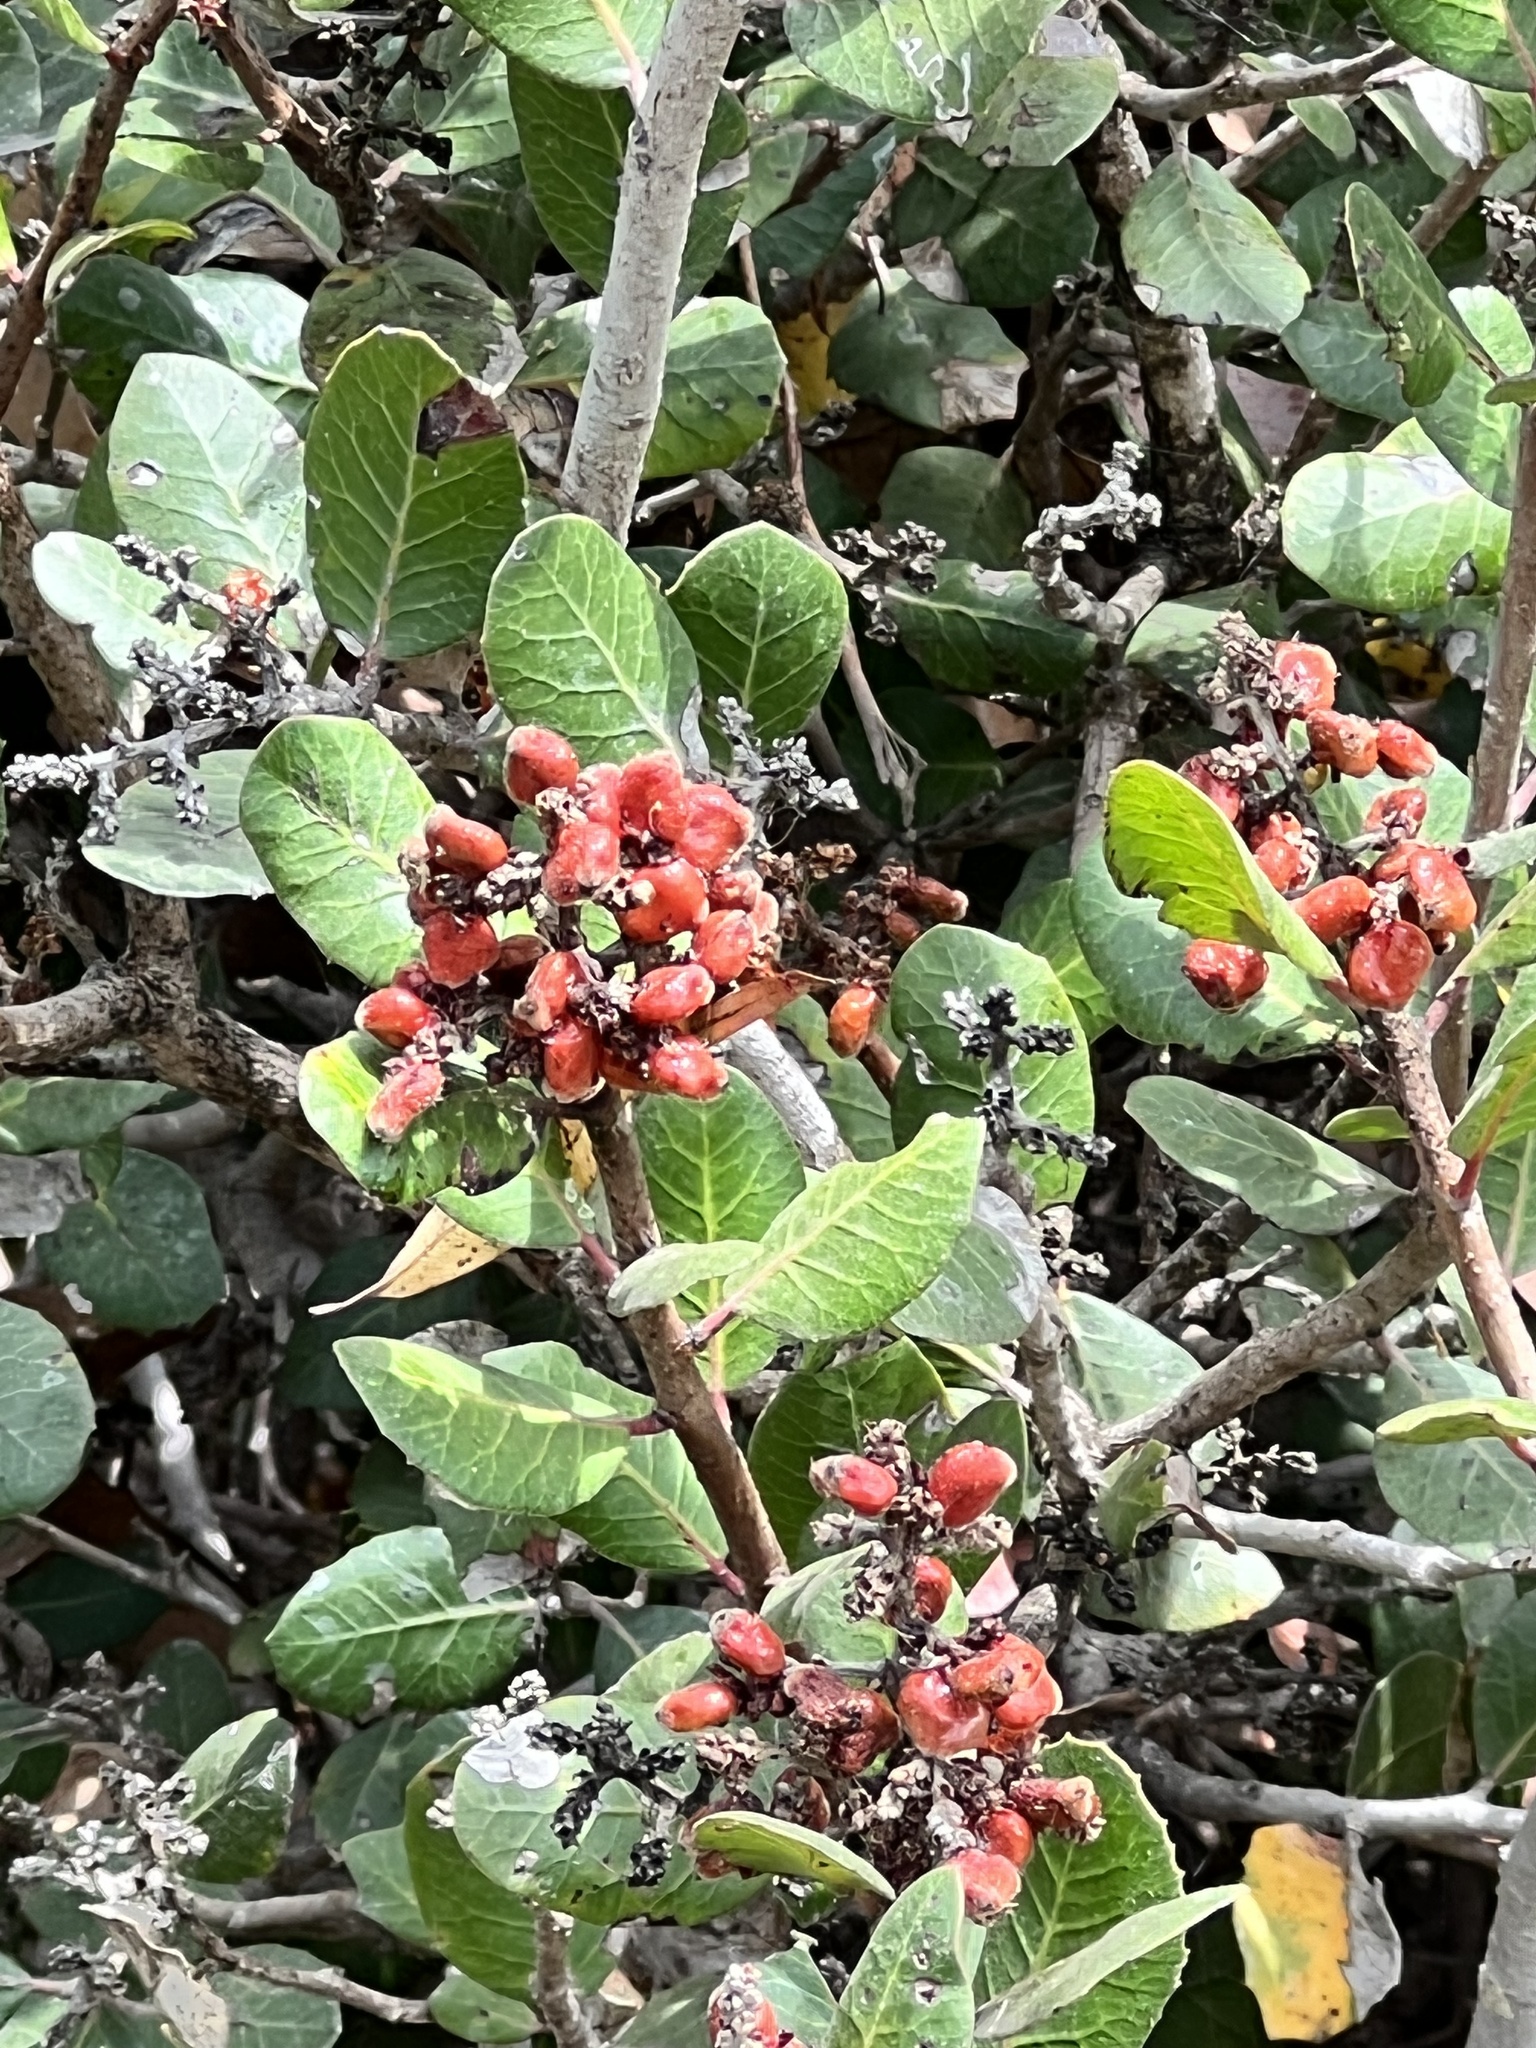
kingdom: Plantae
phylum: Tracheophyta
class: Magnoliopsida
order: Sapindales
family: Anacardiaceae
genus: Rhus
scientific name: Rhus integrifolia
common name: Lemonade sumac
